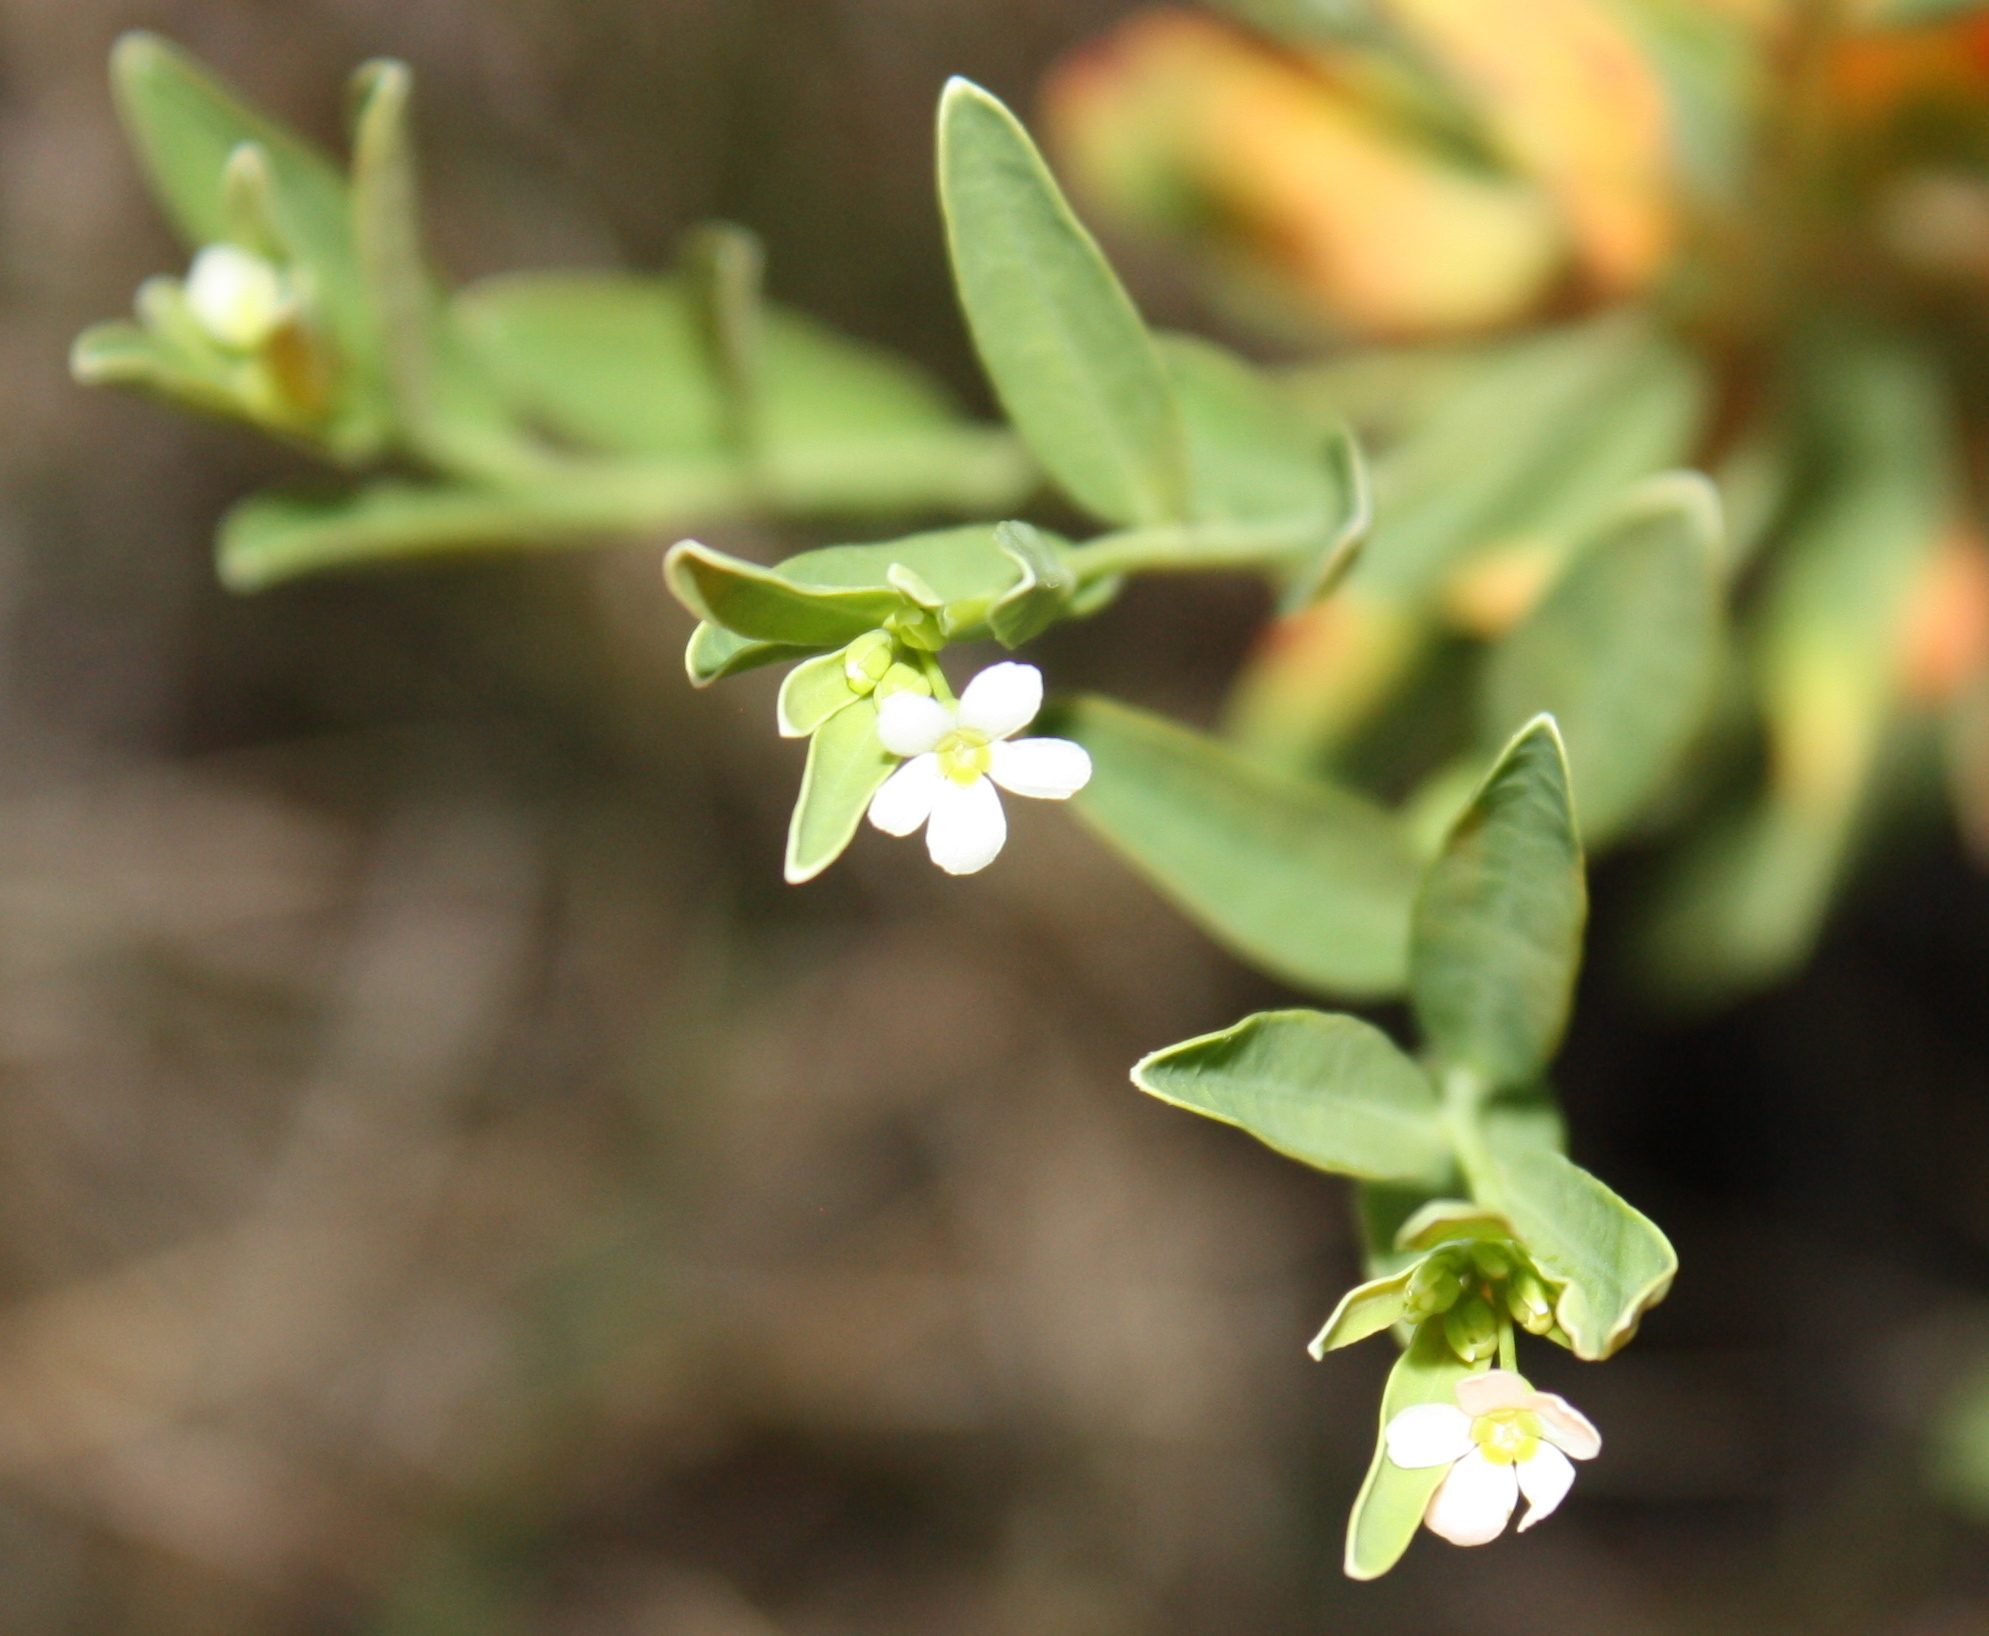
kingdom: Plantae
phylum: Tracheophyta
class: Magnoliopsida
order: Malpighiales
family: Euphorbiaceae
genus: Euphorbia
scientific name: Euphorbia corollata
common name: Flowering spurge
